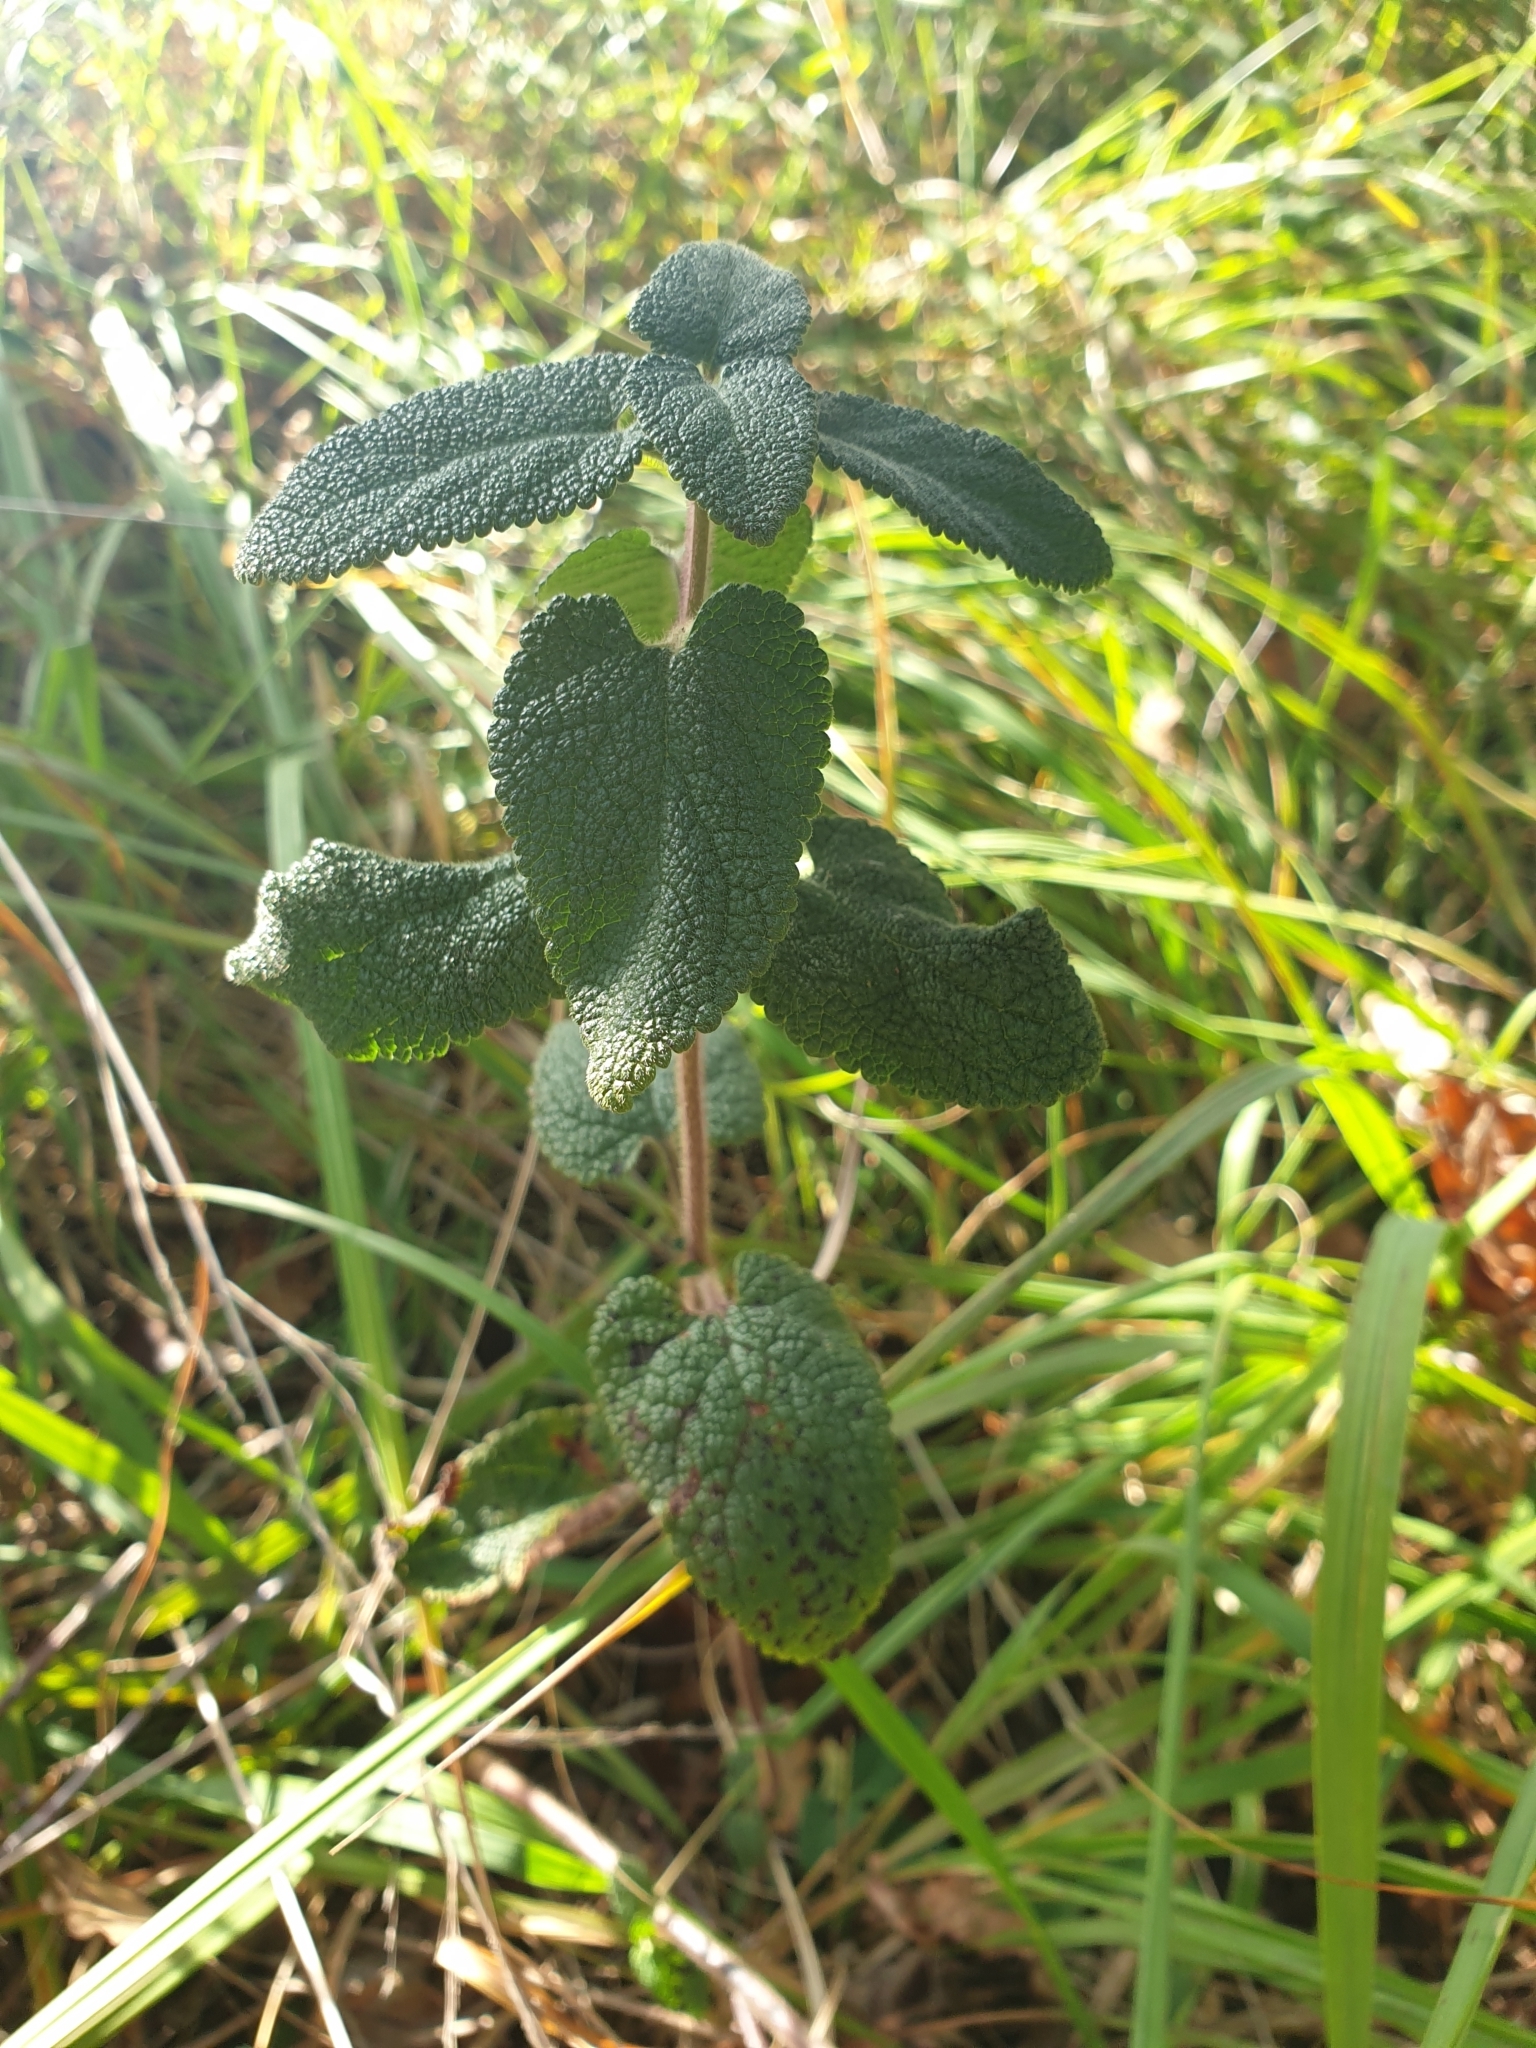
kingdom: Plantae
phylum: Tracheophyta
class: Magnoliopsida
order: Lamiales
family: Lamiaceae
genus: Teucrium
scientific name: Teucrium scorodonia
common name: Woodland germander
